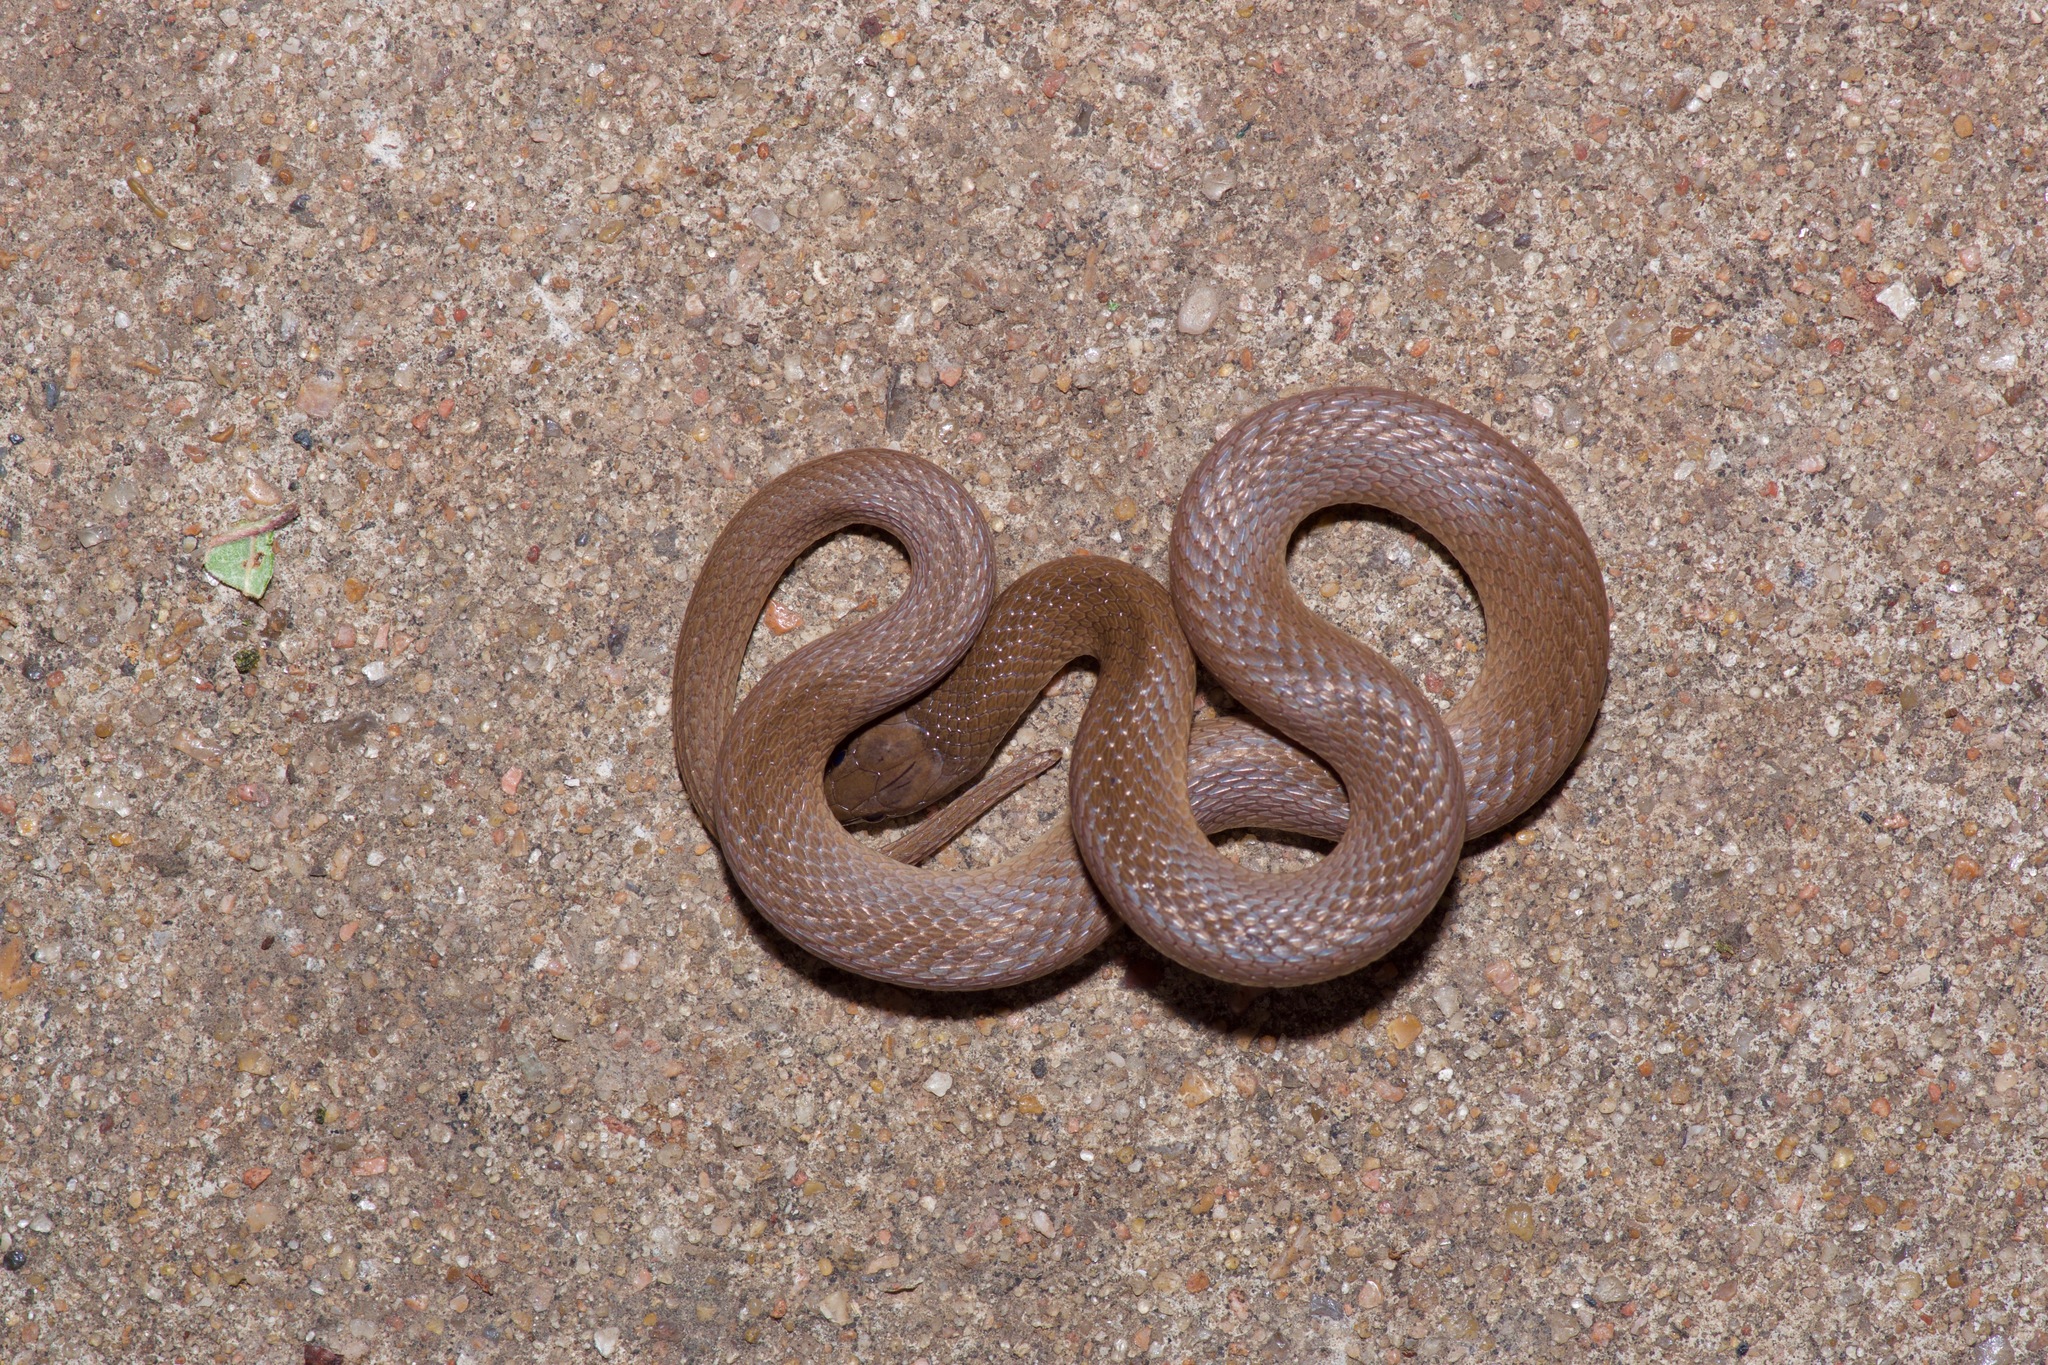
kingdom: Animalia
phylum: Chordata
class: Squamata
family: Colubridae
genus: Haldea
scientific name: Haldea striatula
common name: Rough earth snake
